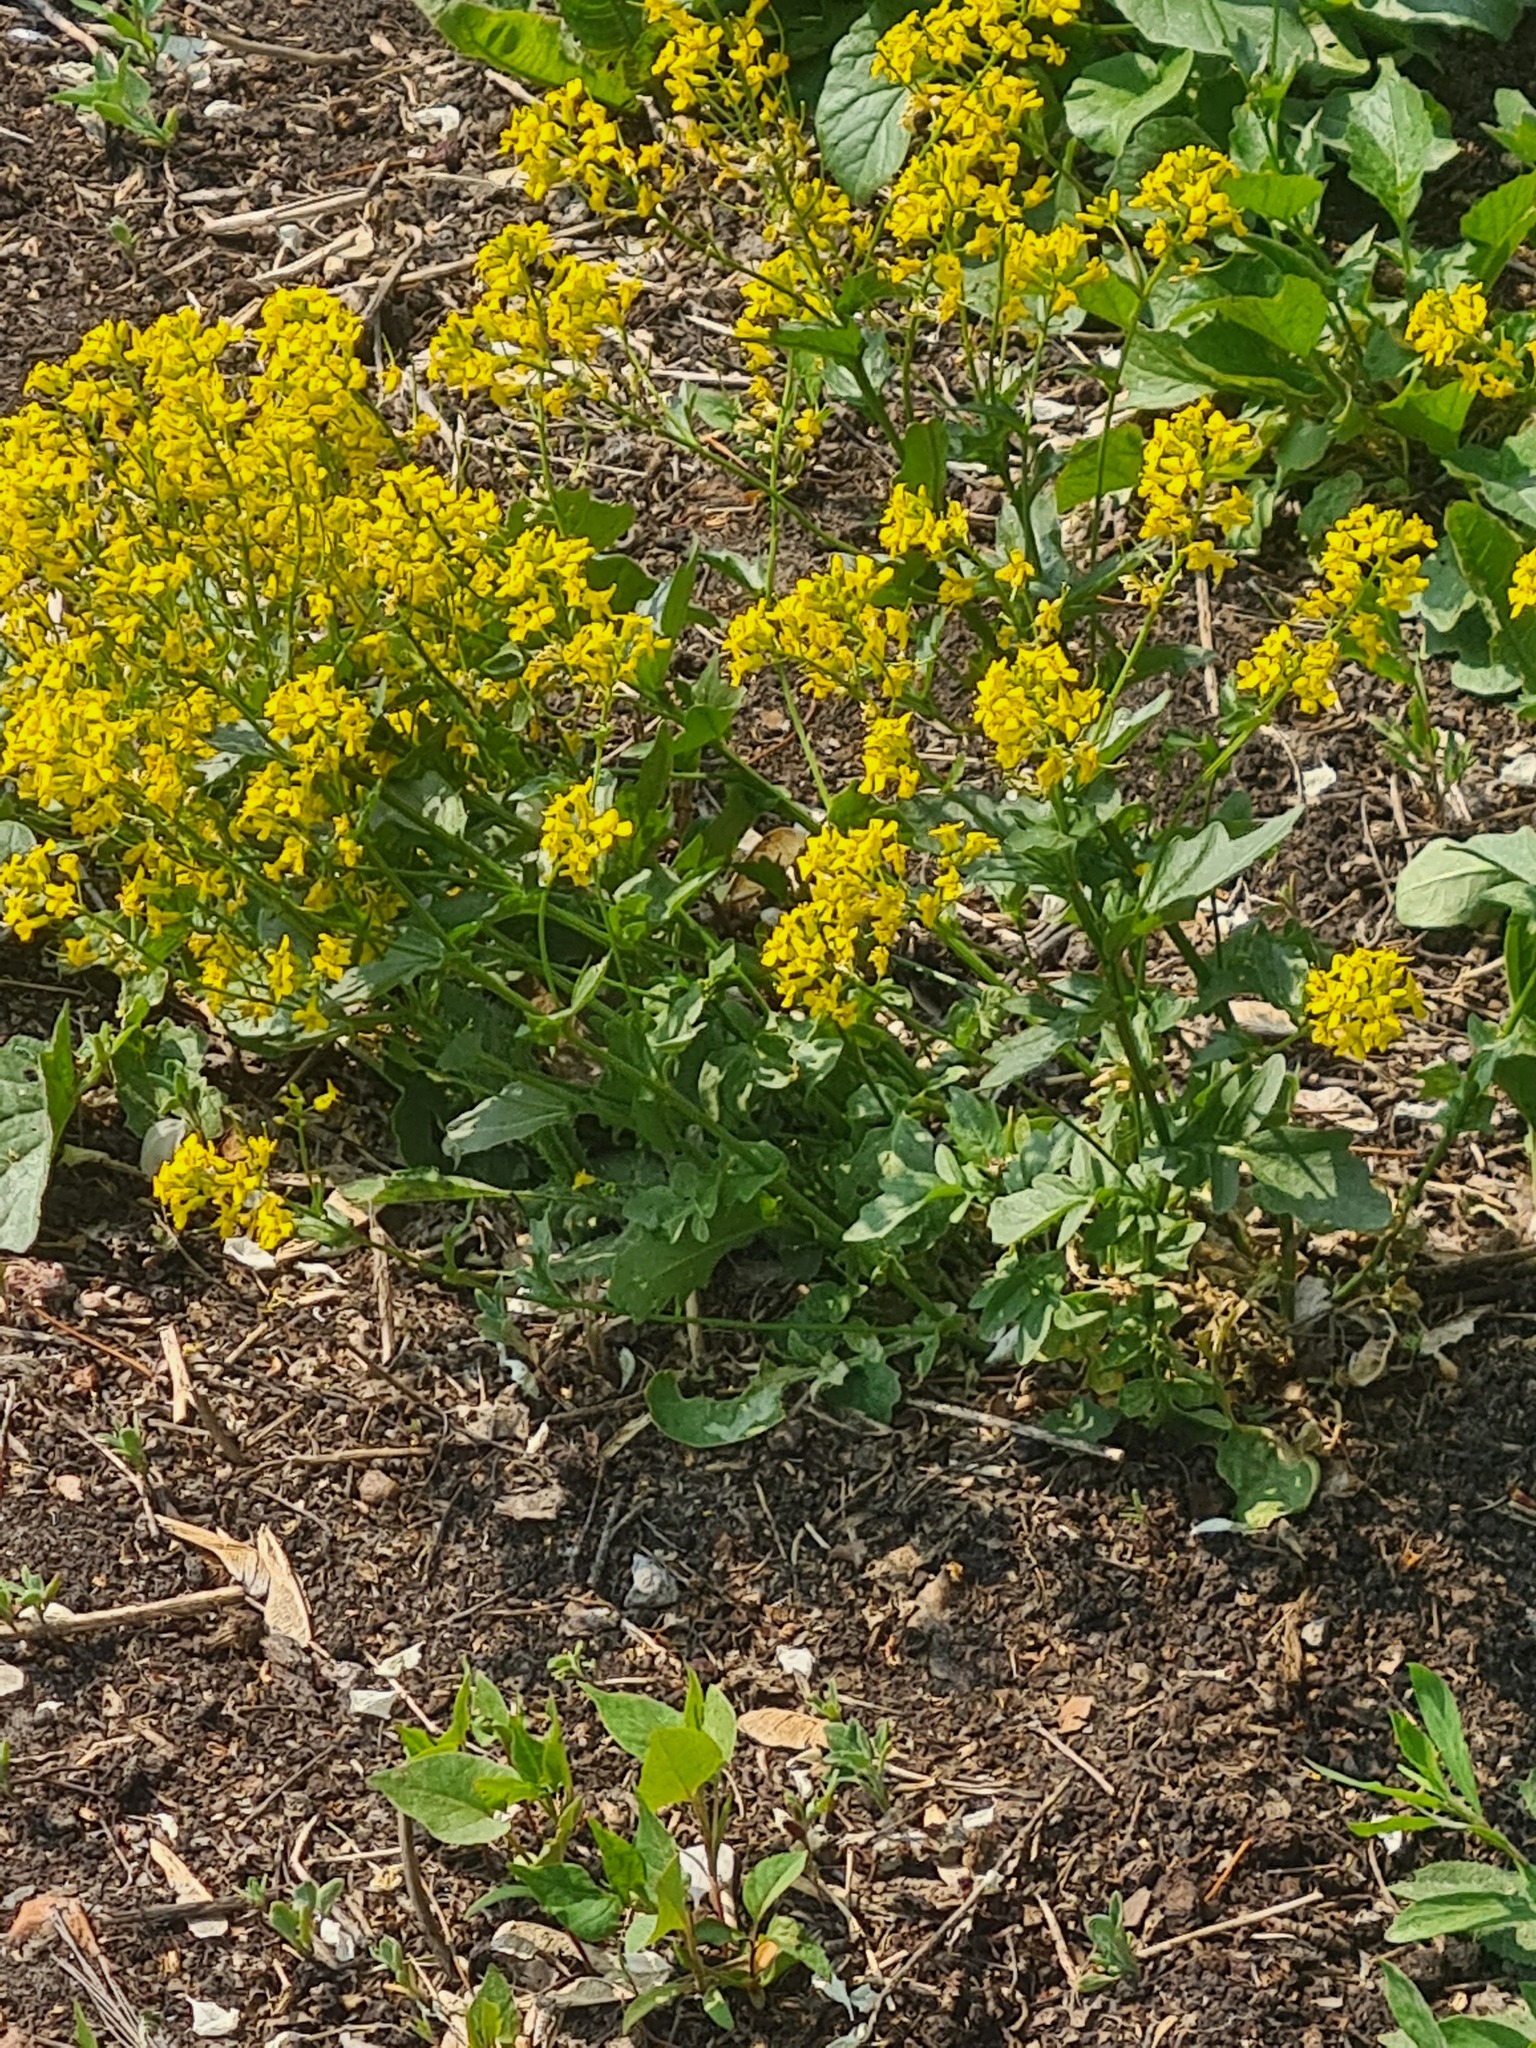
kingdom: Plantae
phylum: Tracheophyta
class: Magnoliopsida
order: Brassicales
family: Brassicaceae
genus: Barbarea
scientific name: Barbarea vulgaris
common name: Cressy-greens
